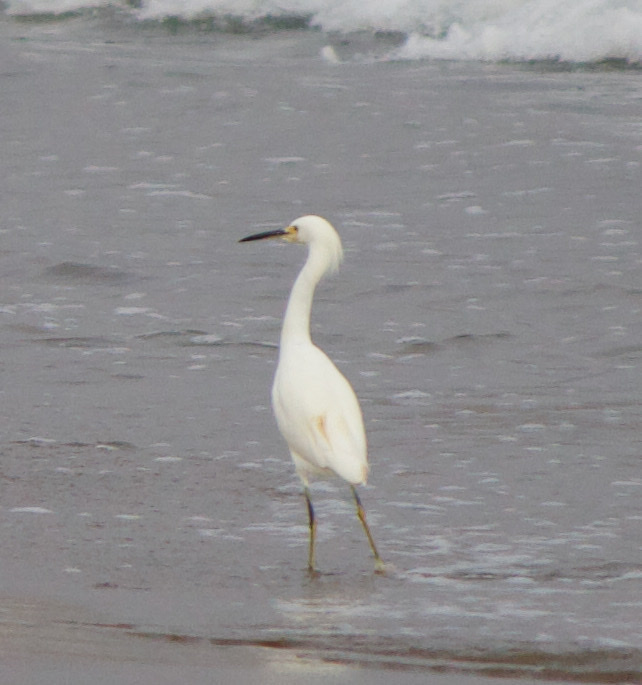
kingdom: Animalia
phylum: Chordata
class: Aves
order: Pelecaniformes
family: Ardeidae
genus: Egretta
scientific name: Egretta thula
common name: Snowy egret
